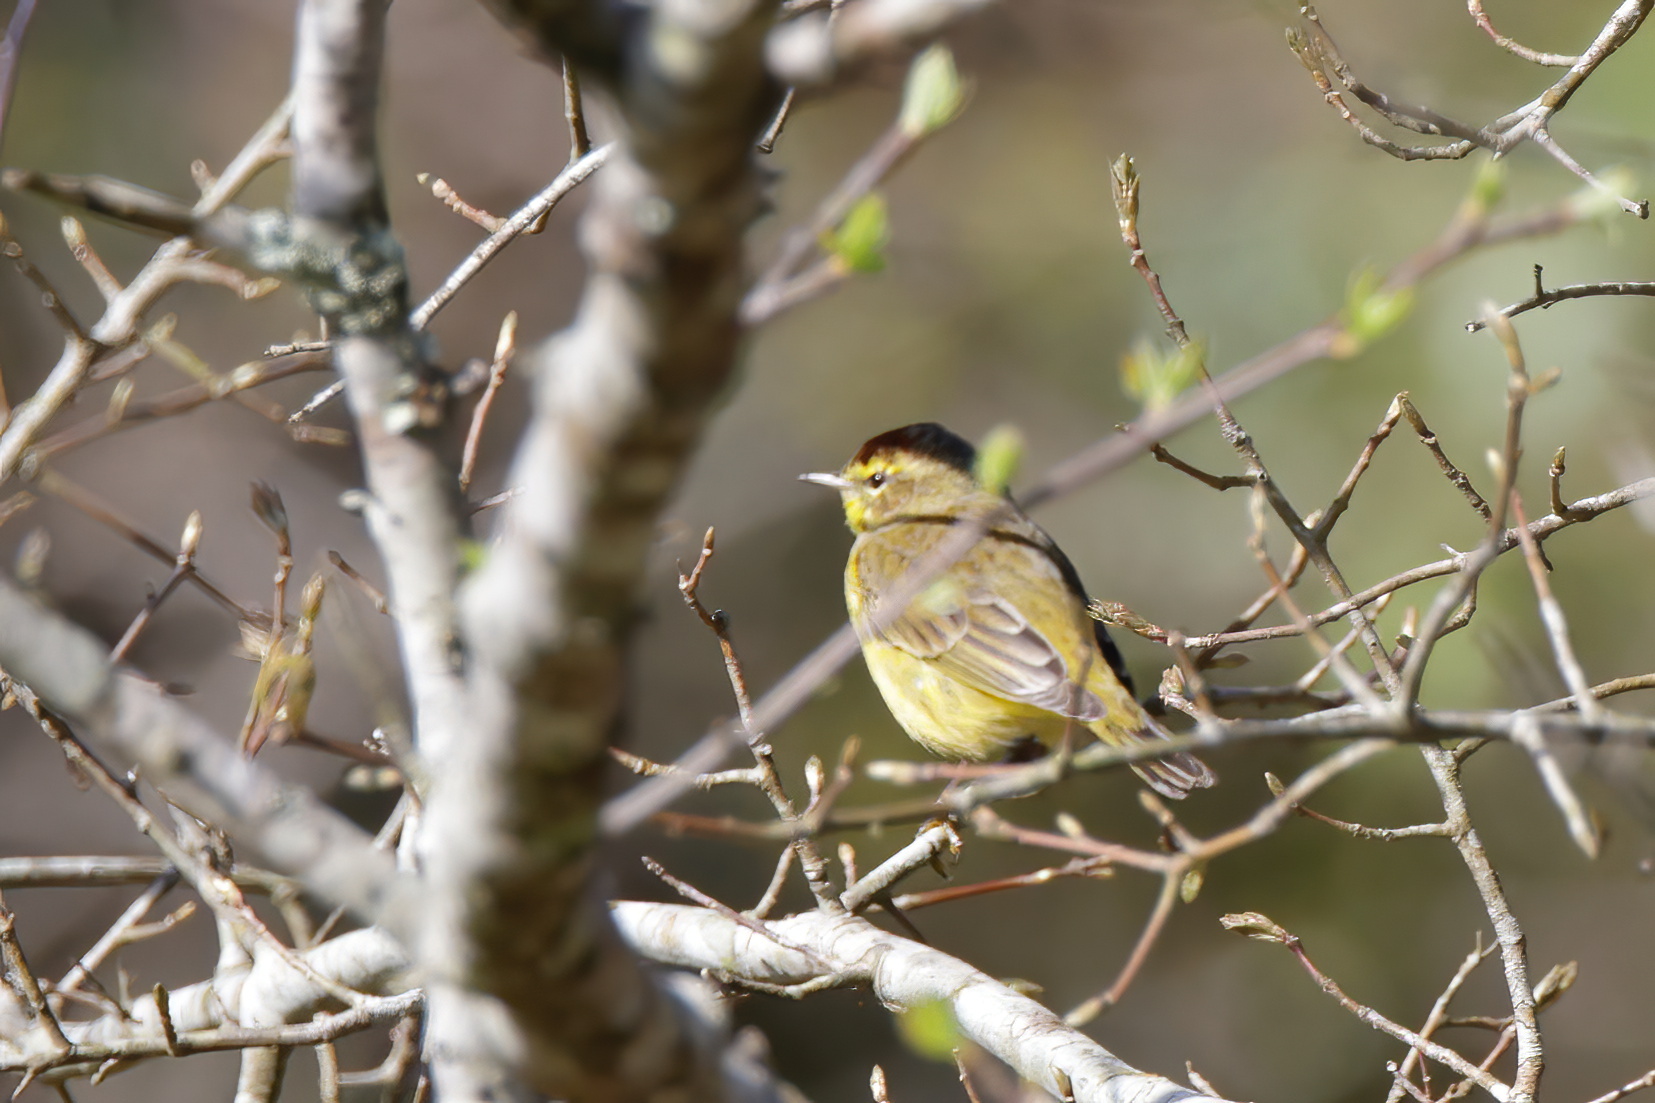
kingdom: Animalia
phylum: Chordata
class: Aves
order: Passeriformes
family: Parulidae
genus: Setophaga
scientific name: Setophaga palmarum
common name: Palm warbler
